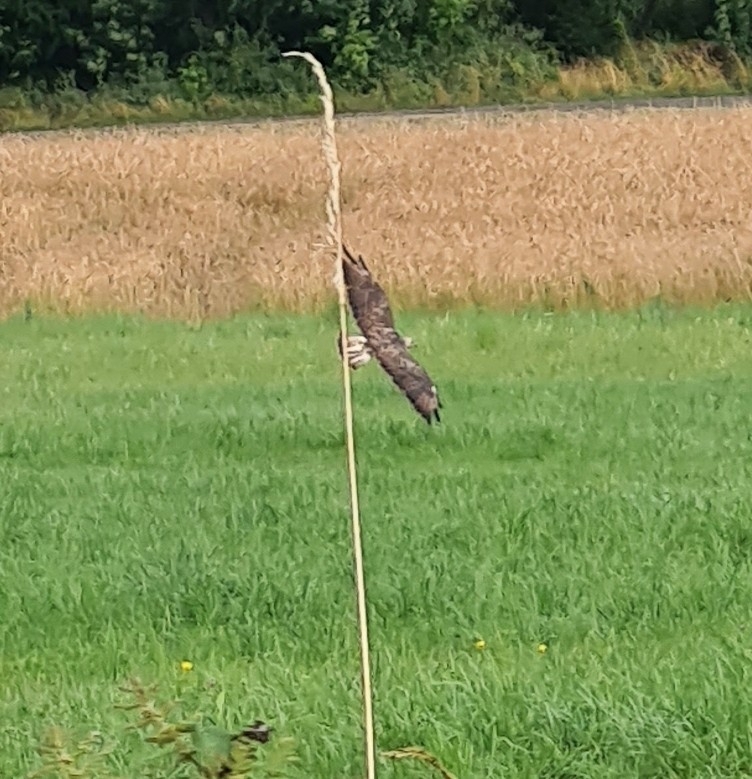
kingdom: Animalia
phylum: Chordata
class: Aves
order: Accipitriformes
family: Accipitridae
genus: Buteo
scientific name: Buteo buteo
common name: Common buzzard
